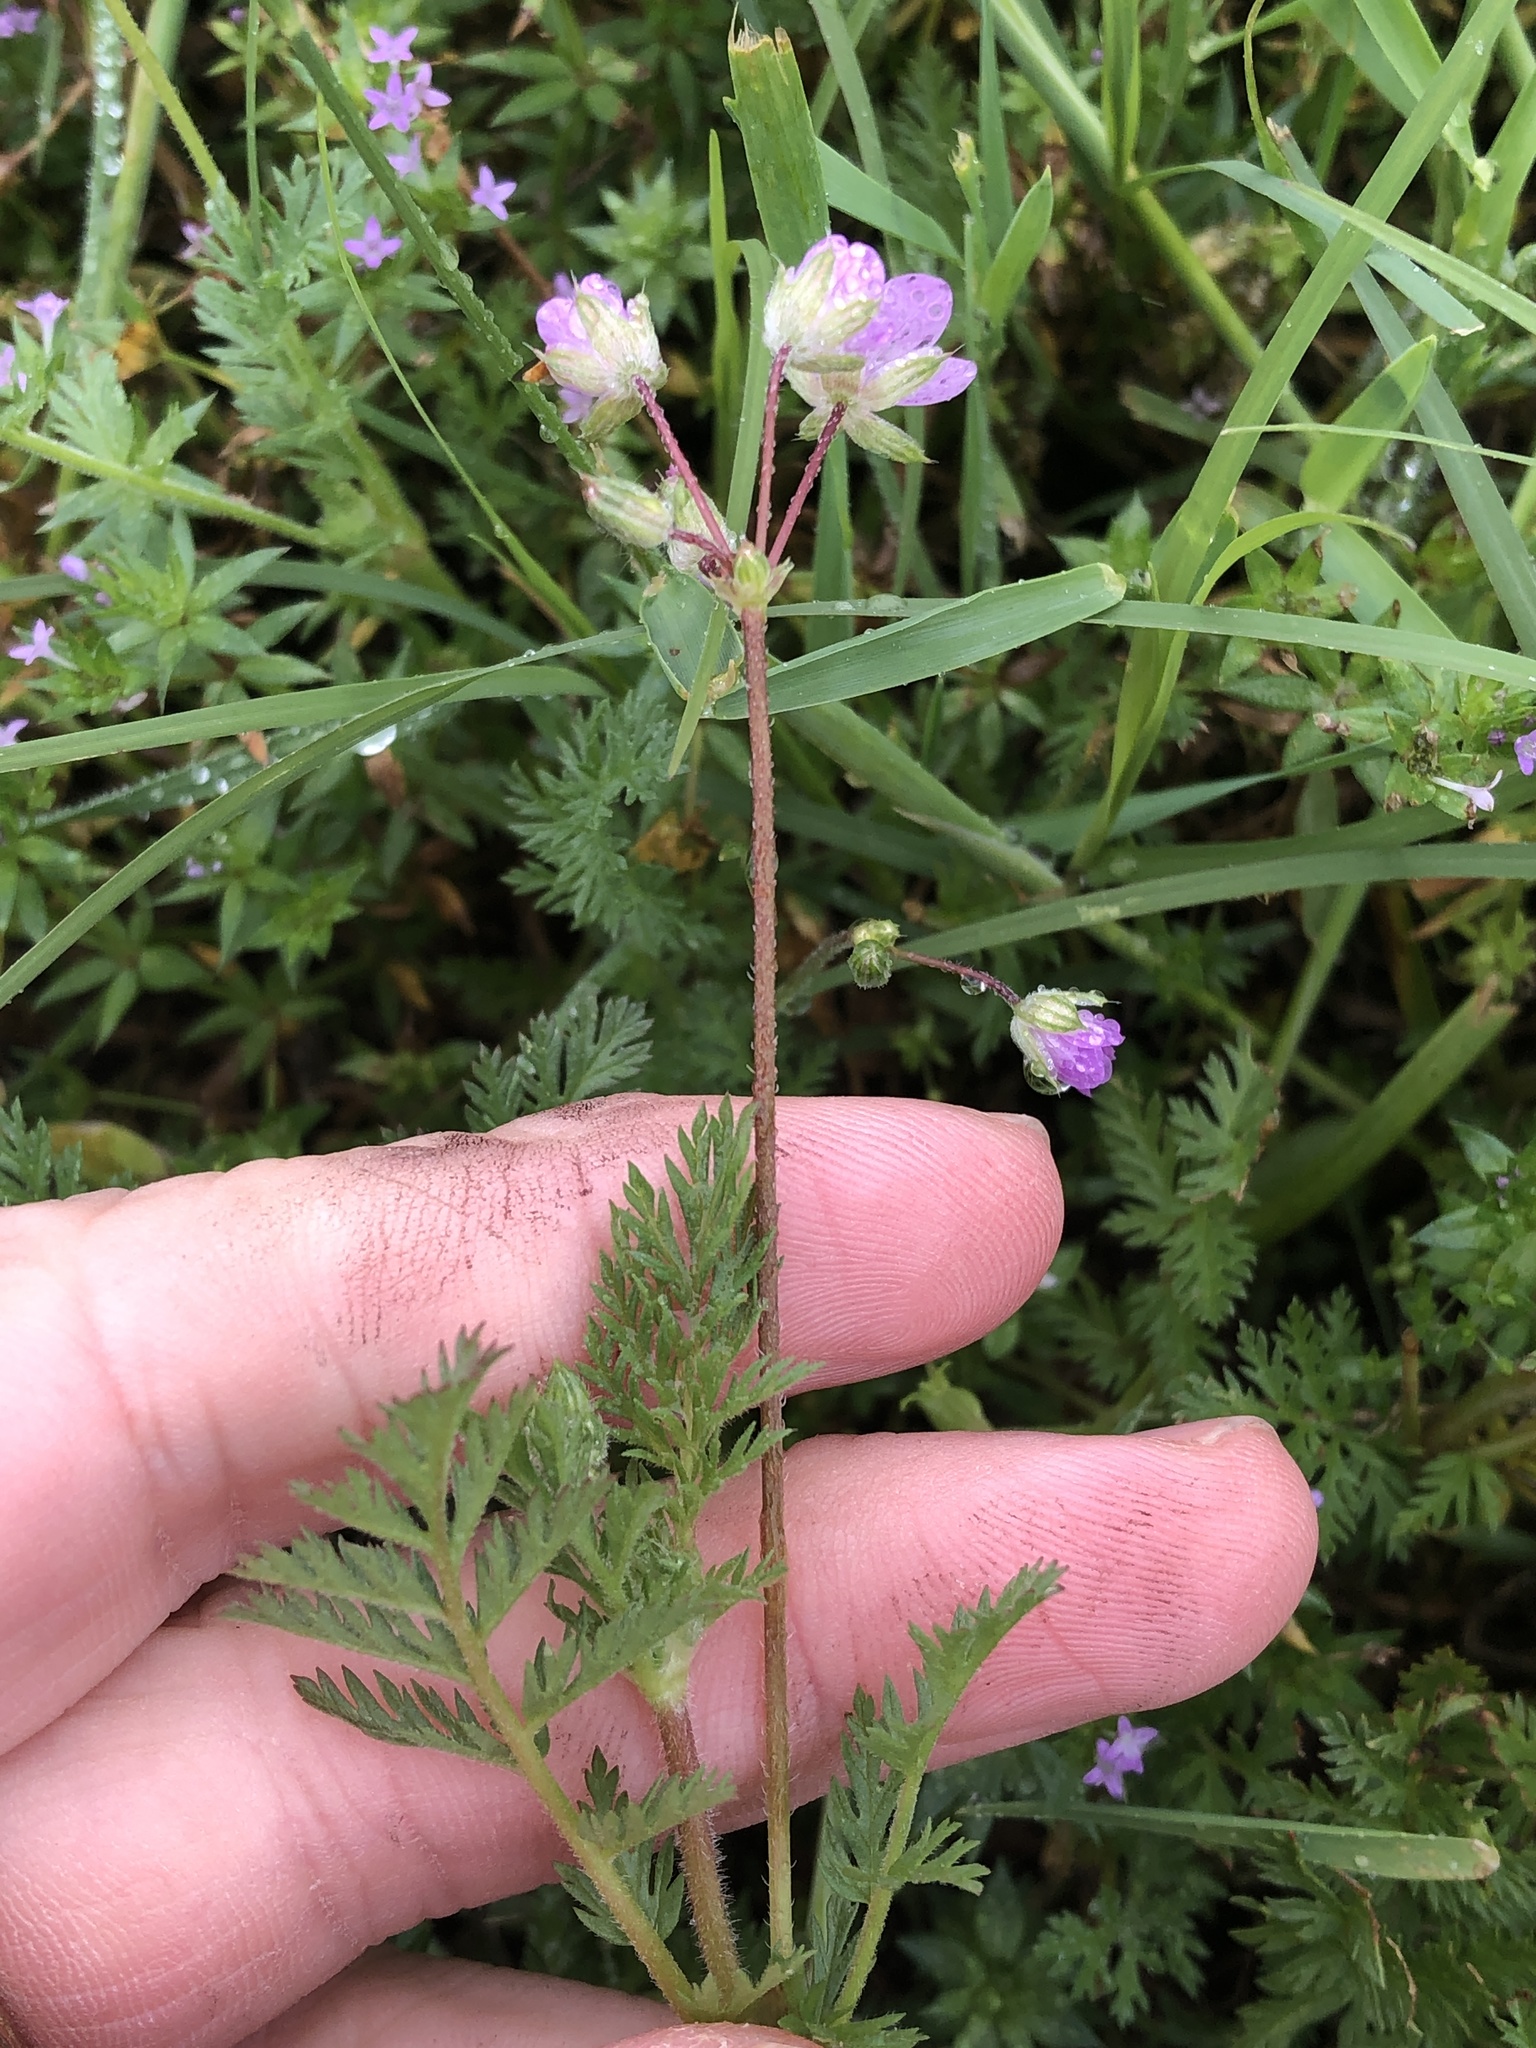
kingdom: Plantae
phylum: Tracheophyta
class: Magnoliopsida
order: Geraniales
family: Geraniaceae
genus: Erodium
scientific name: Erodium cicutarium
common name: Common stork's-bill
